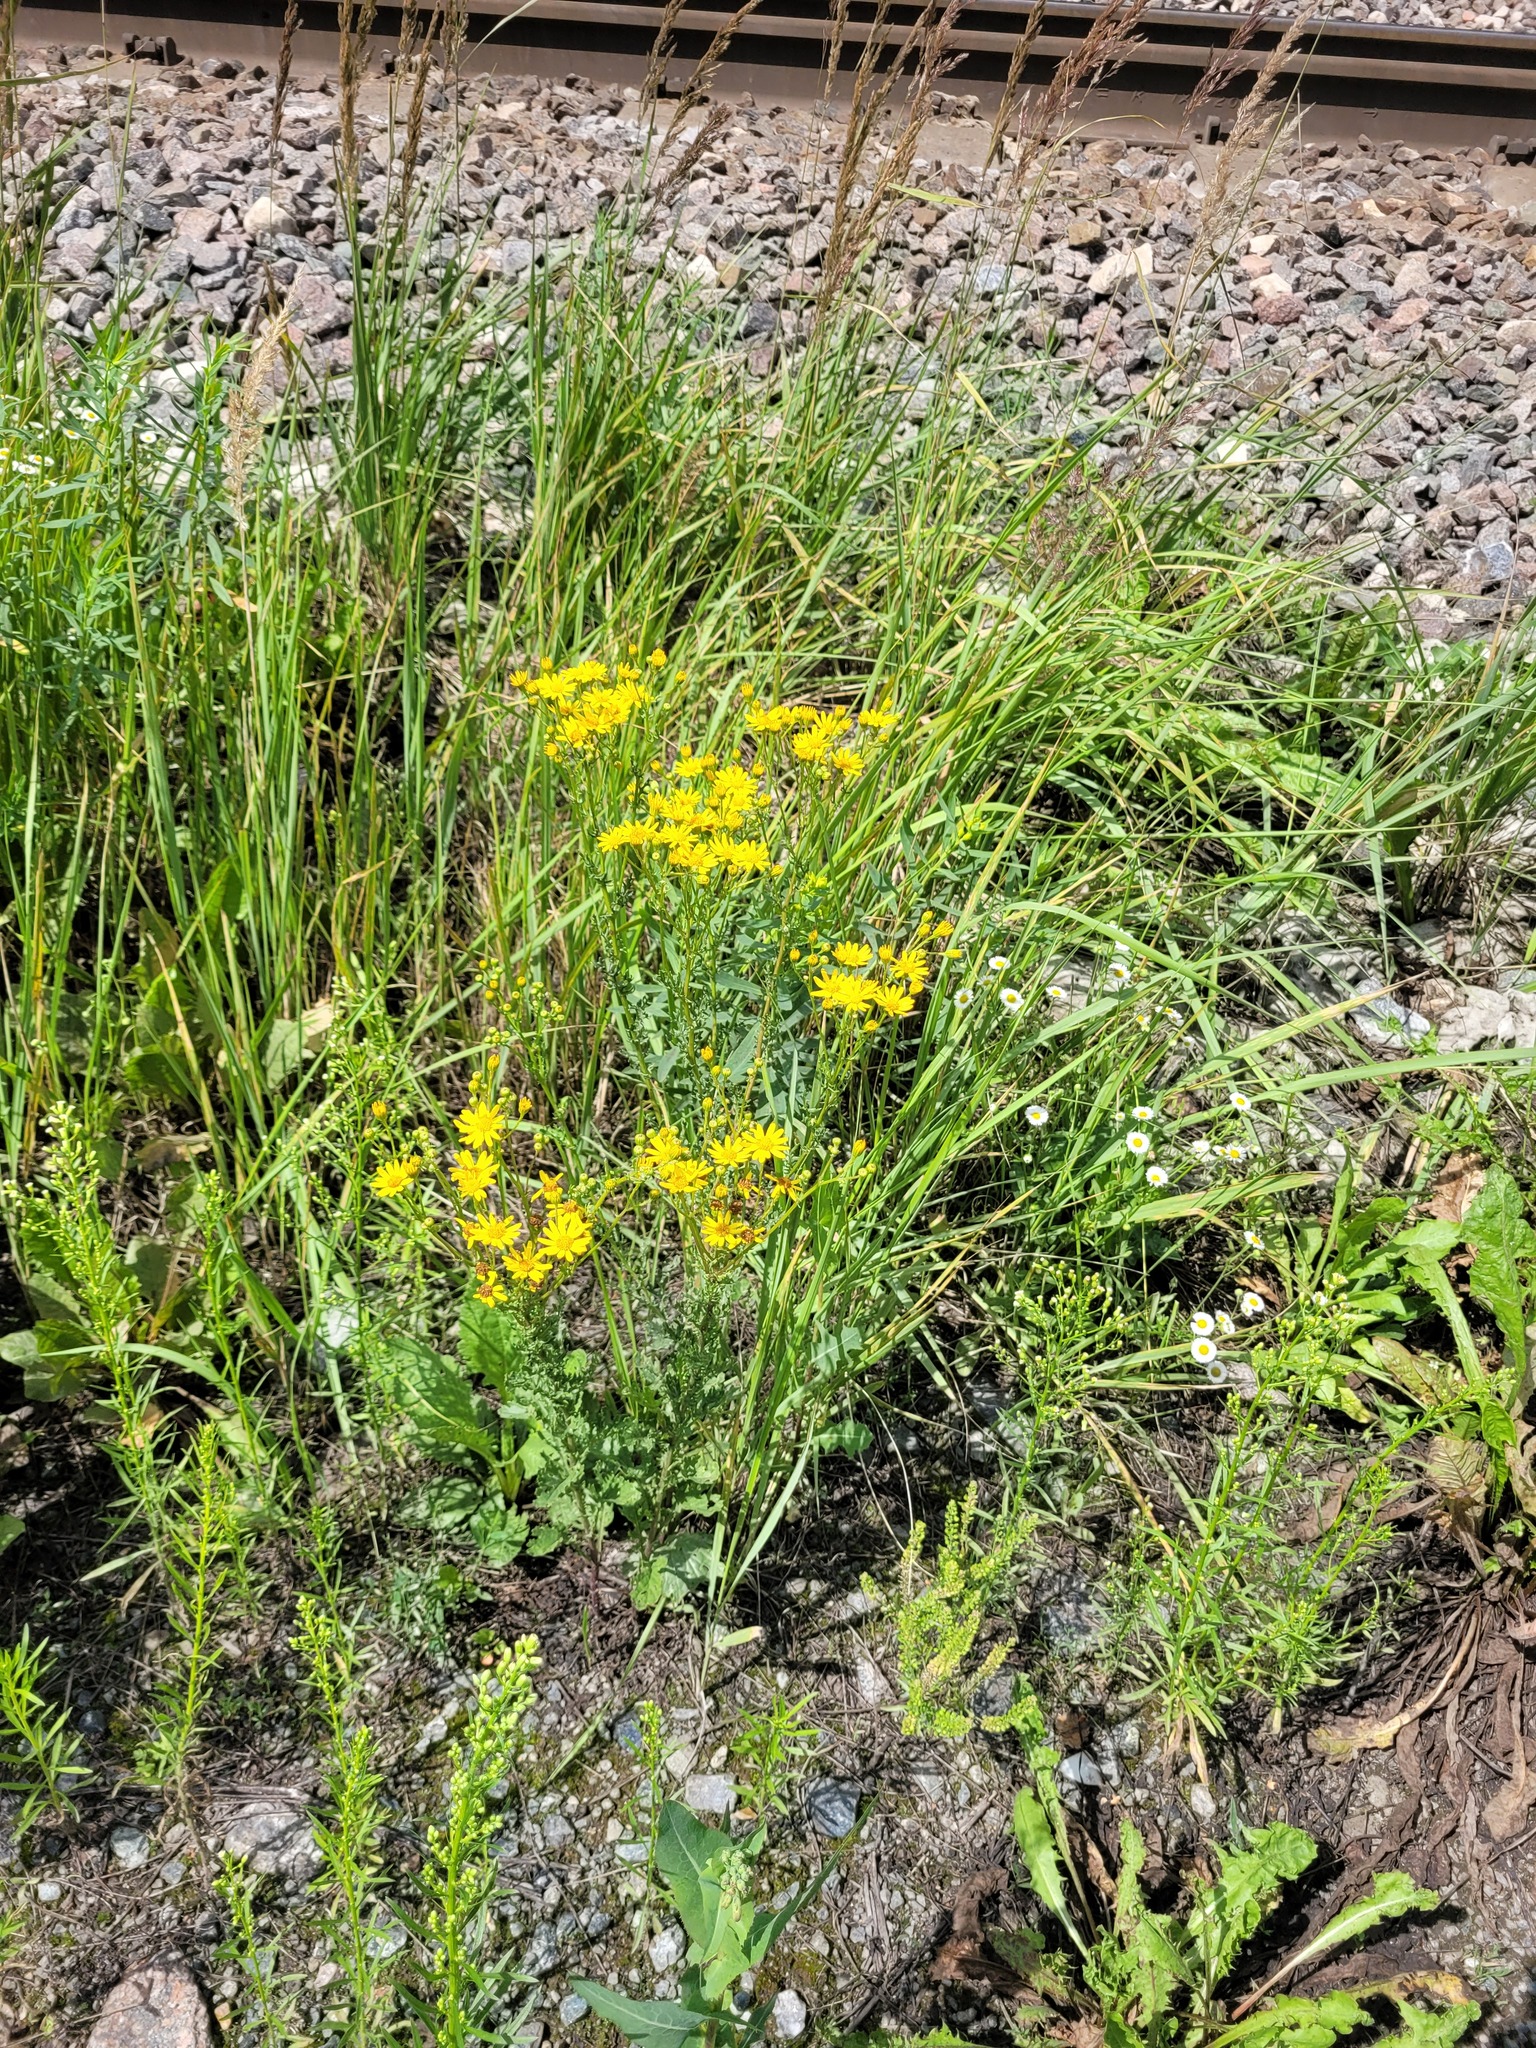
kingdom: Plantae
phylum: Tracheophyta
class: Magnoliopsida
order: Asterales
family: Asteraceae
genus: Jacobaea
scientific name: Jacobaea vulgaris
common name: Stinking willie
